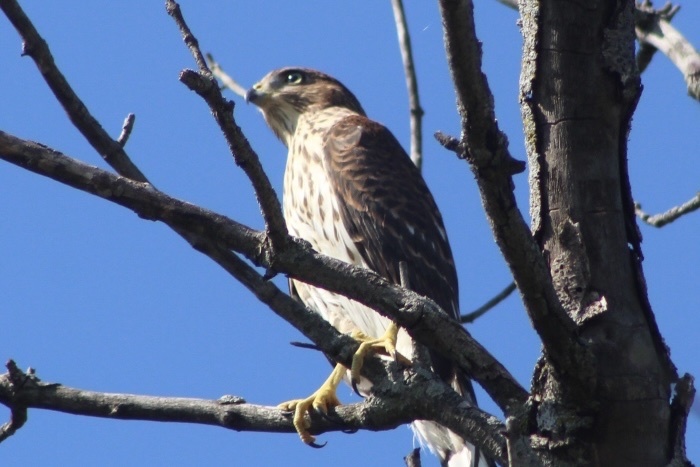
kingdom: Animalia
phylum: Chordata
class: Aves
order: Accipitriformes
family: Accipitridae
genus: Accipiter
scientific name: Accipiter cooperii
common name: Cooper's hawk
